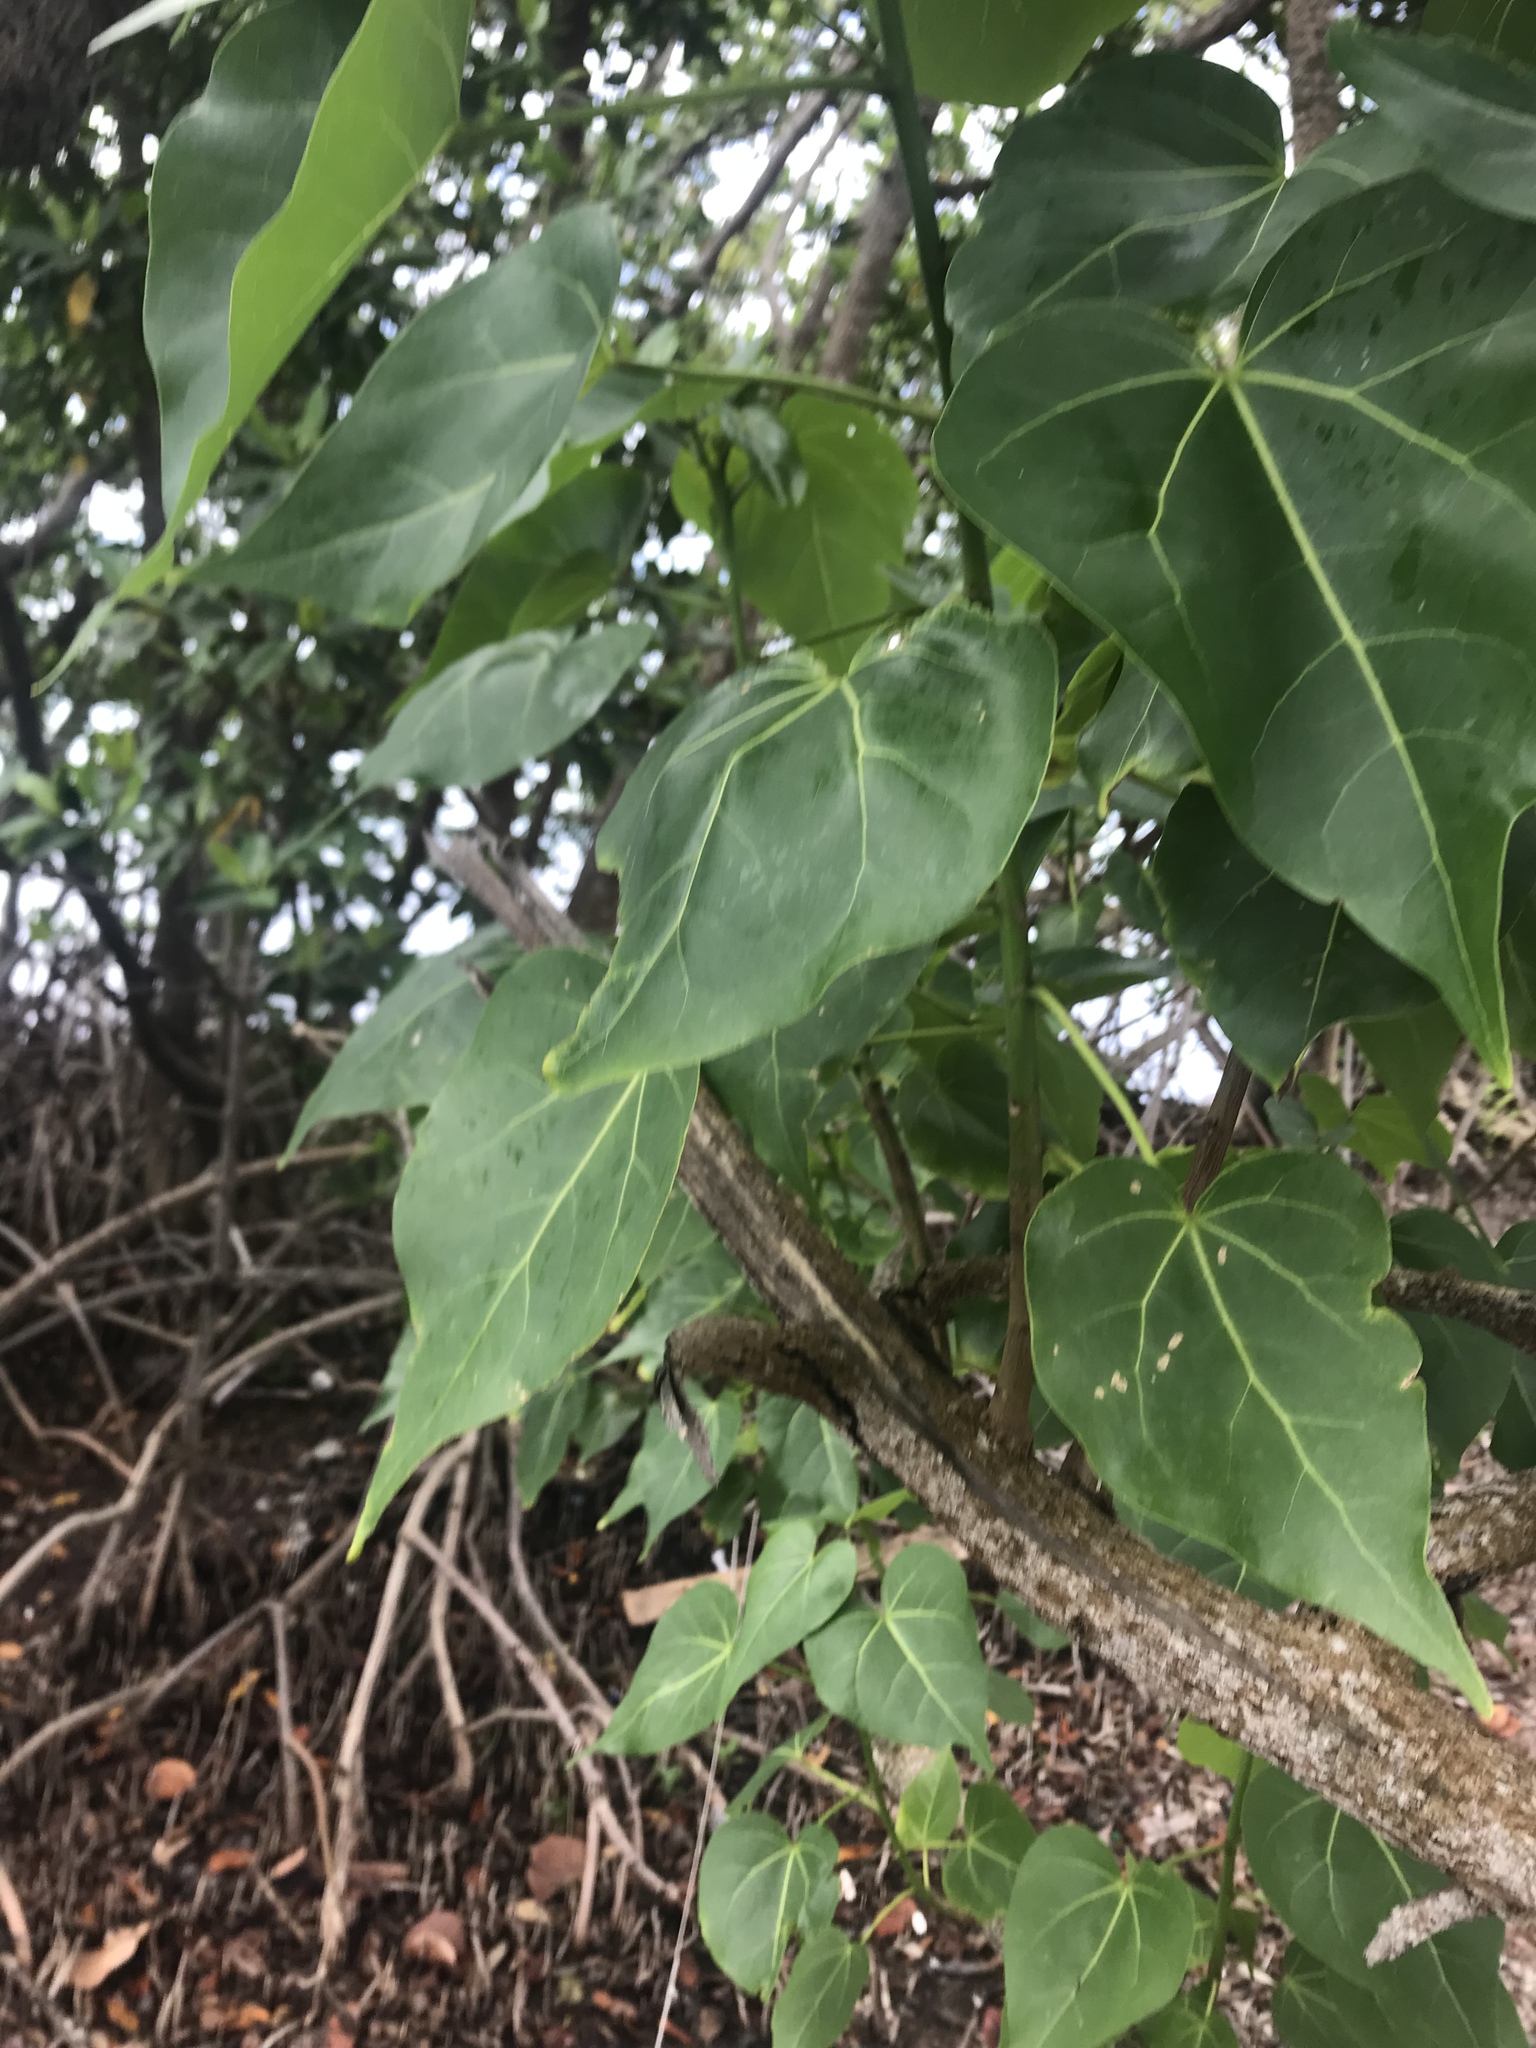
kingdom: Plantae
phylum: Tracheophyta
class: Magnoliopsida
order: Malvales
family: Malvaceae
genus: Thespesia
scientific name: Thespesia populnea
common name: Seaside mahoe
